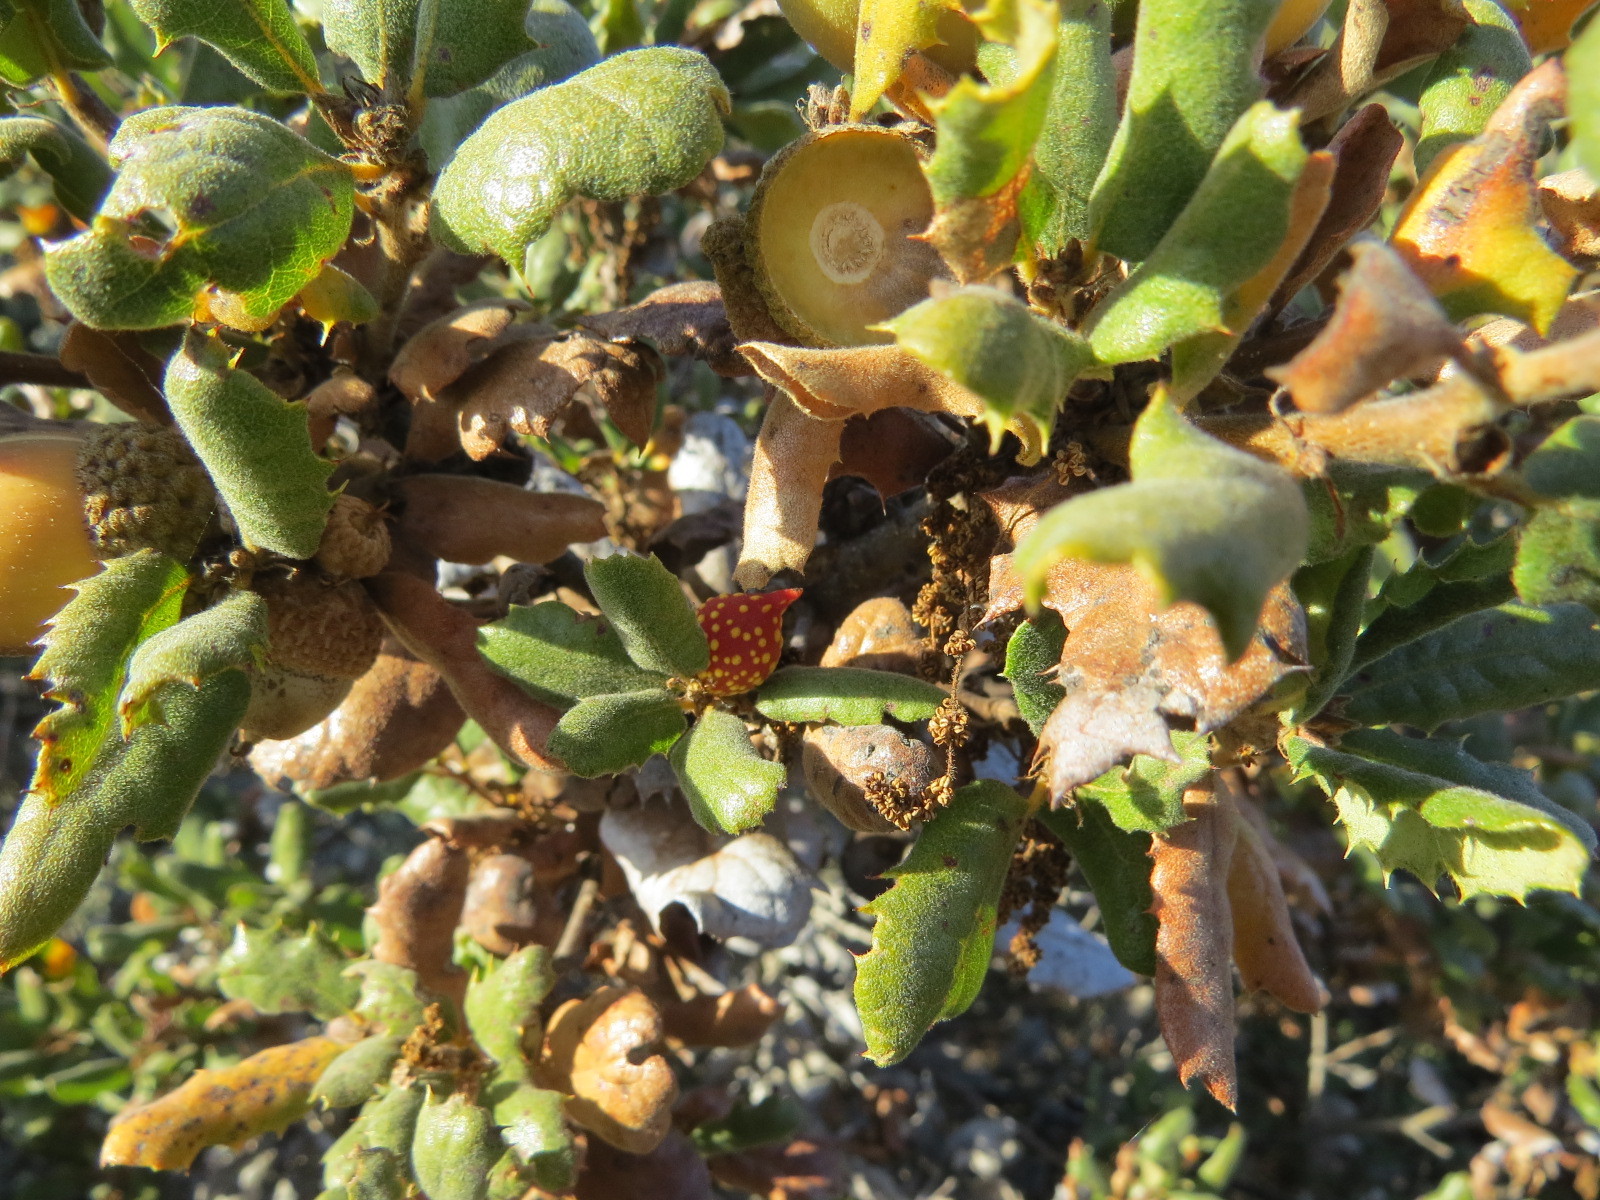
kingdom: Animalia
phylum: Arthropoda
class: Insecta
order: Hymenoptera
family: Cynipidae
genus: Burnettweldia
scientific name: Burnettweldia
